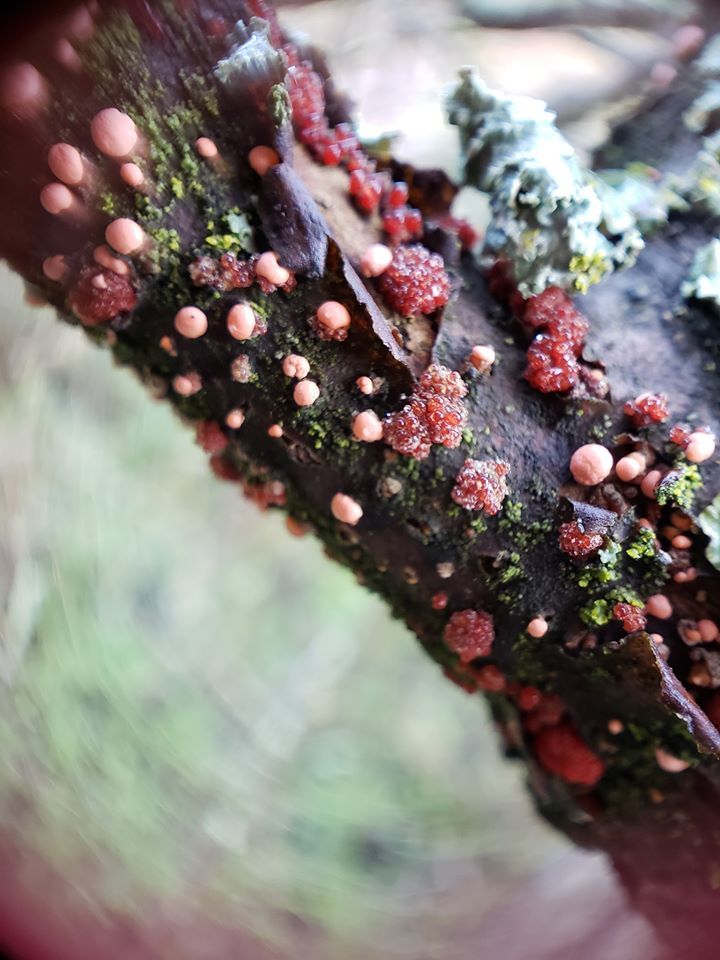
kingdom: Fungi
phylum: Ascomycota
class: Sordariomycetes
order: Hypocreales
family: Nectriaceae
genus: Nectria
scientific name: Nectria cinnabarina
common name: Coral spot
